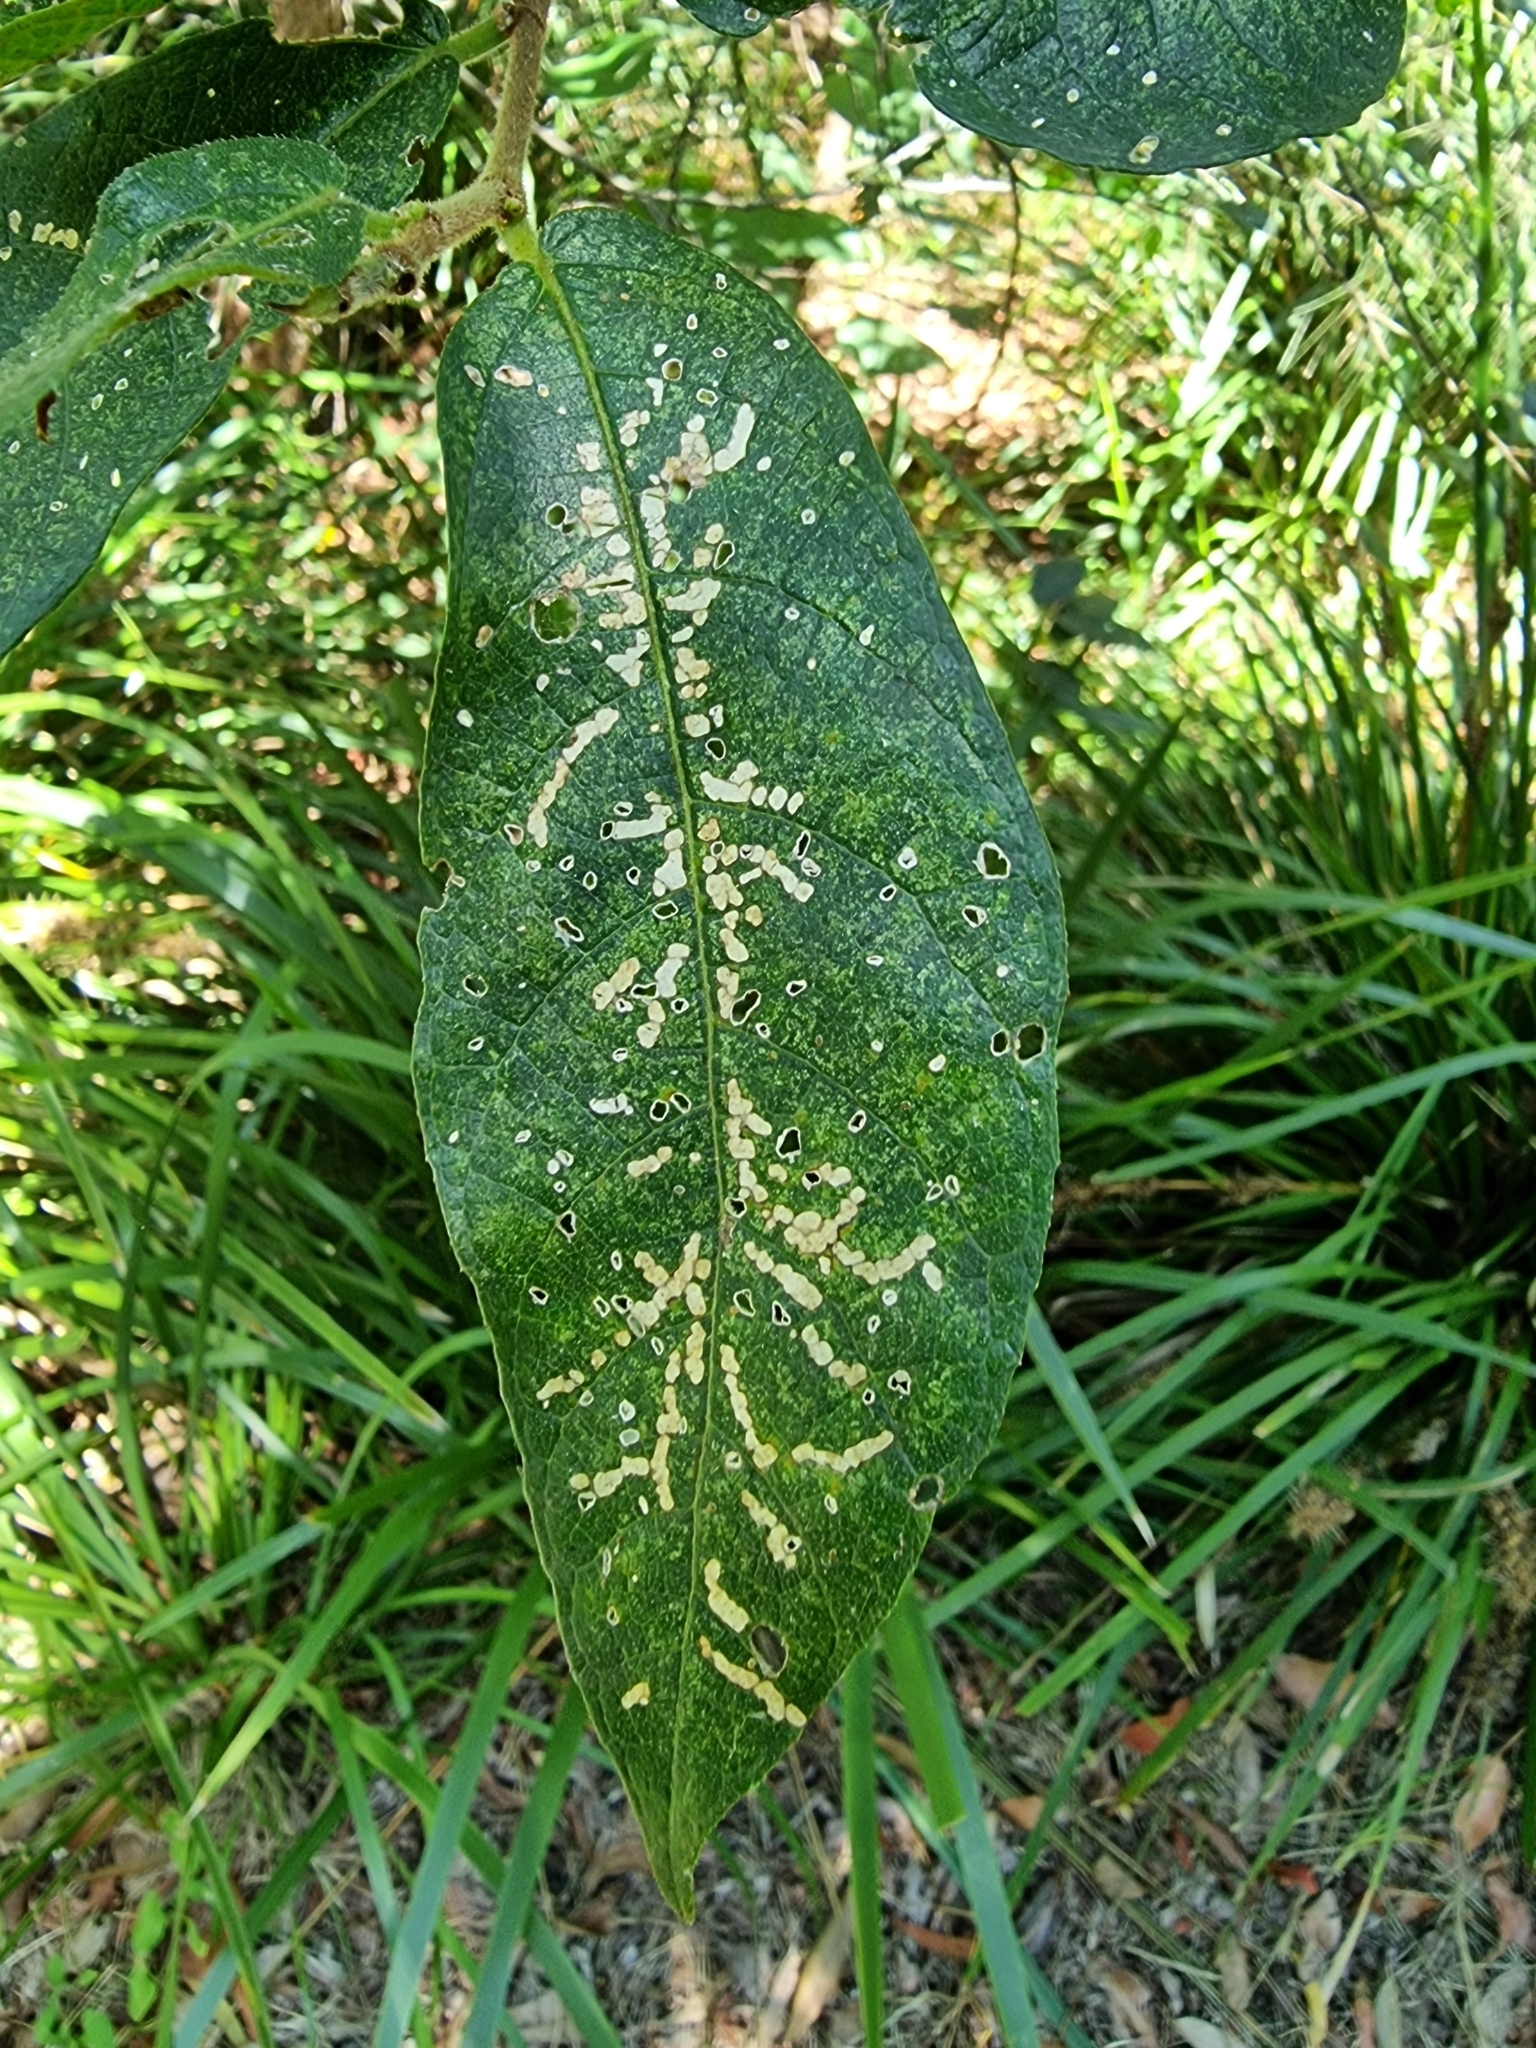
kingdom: Plantae
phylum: Tracheophyta
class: Magnoliopsida
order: Rosales
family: Moraceae
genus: Ficus
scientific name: Ficus coronata
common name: Creek sandpaper fig
